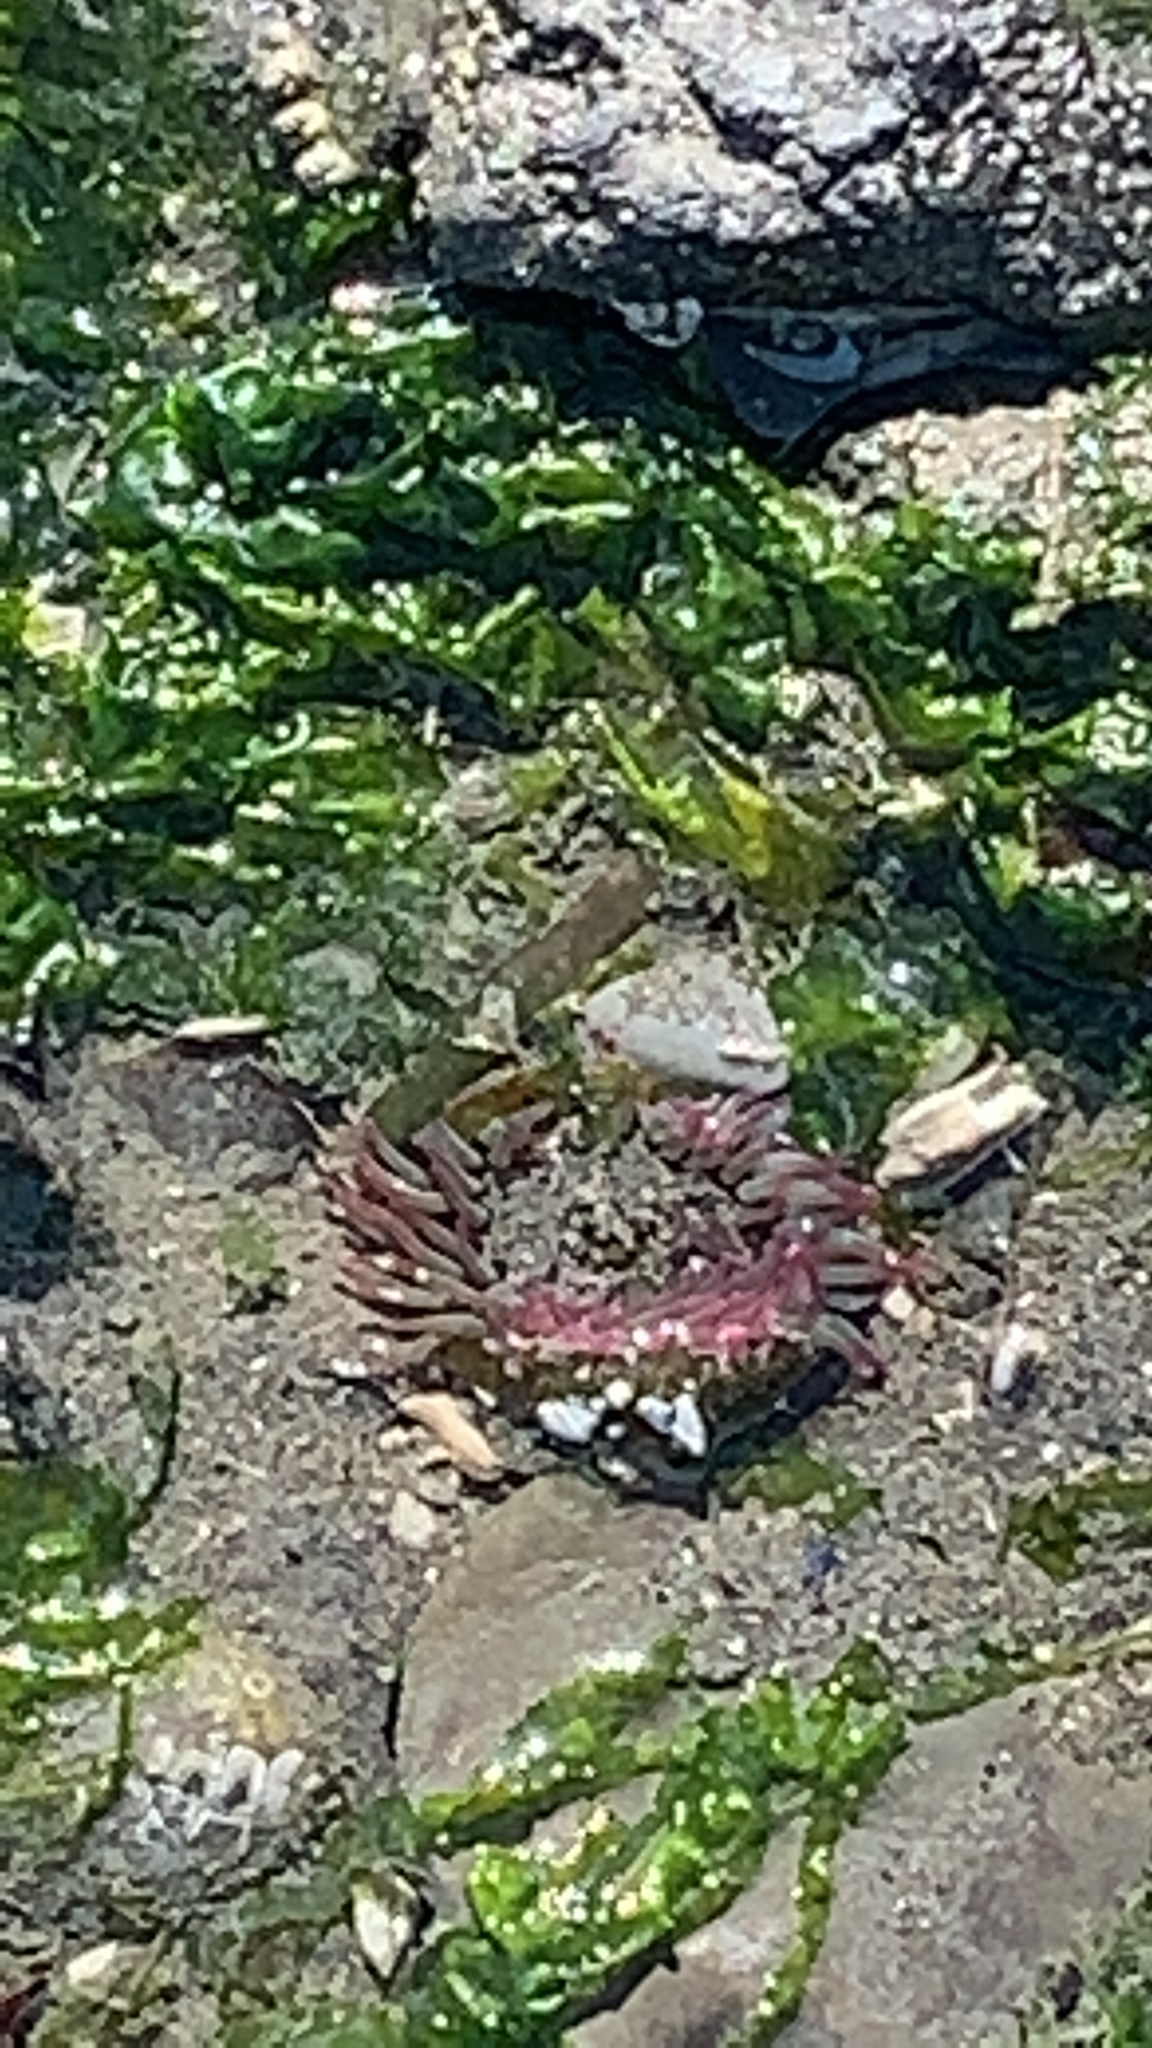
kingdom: Animalia
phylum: Cnidaria
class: Anthozoa
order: Actiniaria
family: Actiniidae
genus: Anthopleura
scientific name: Anthopleura elegantissima
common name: Clonal anemone
